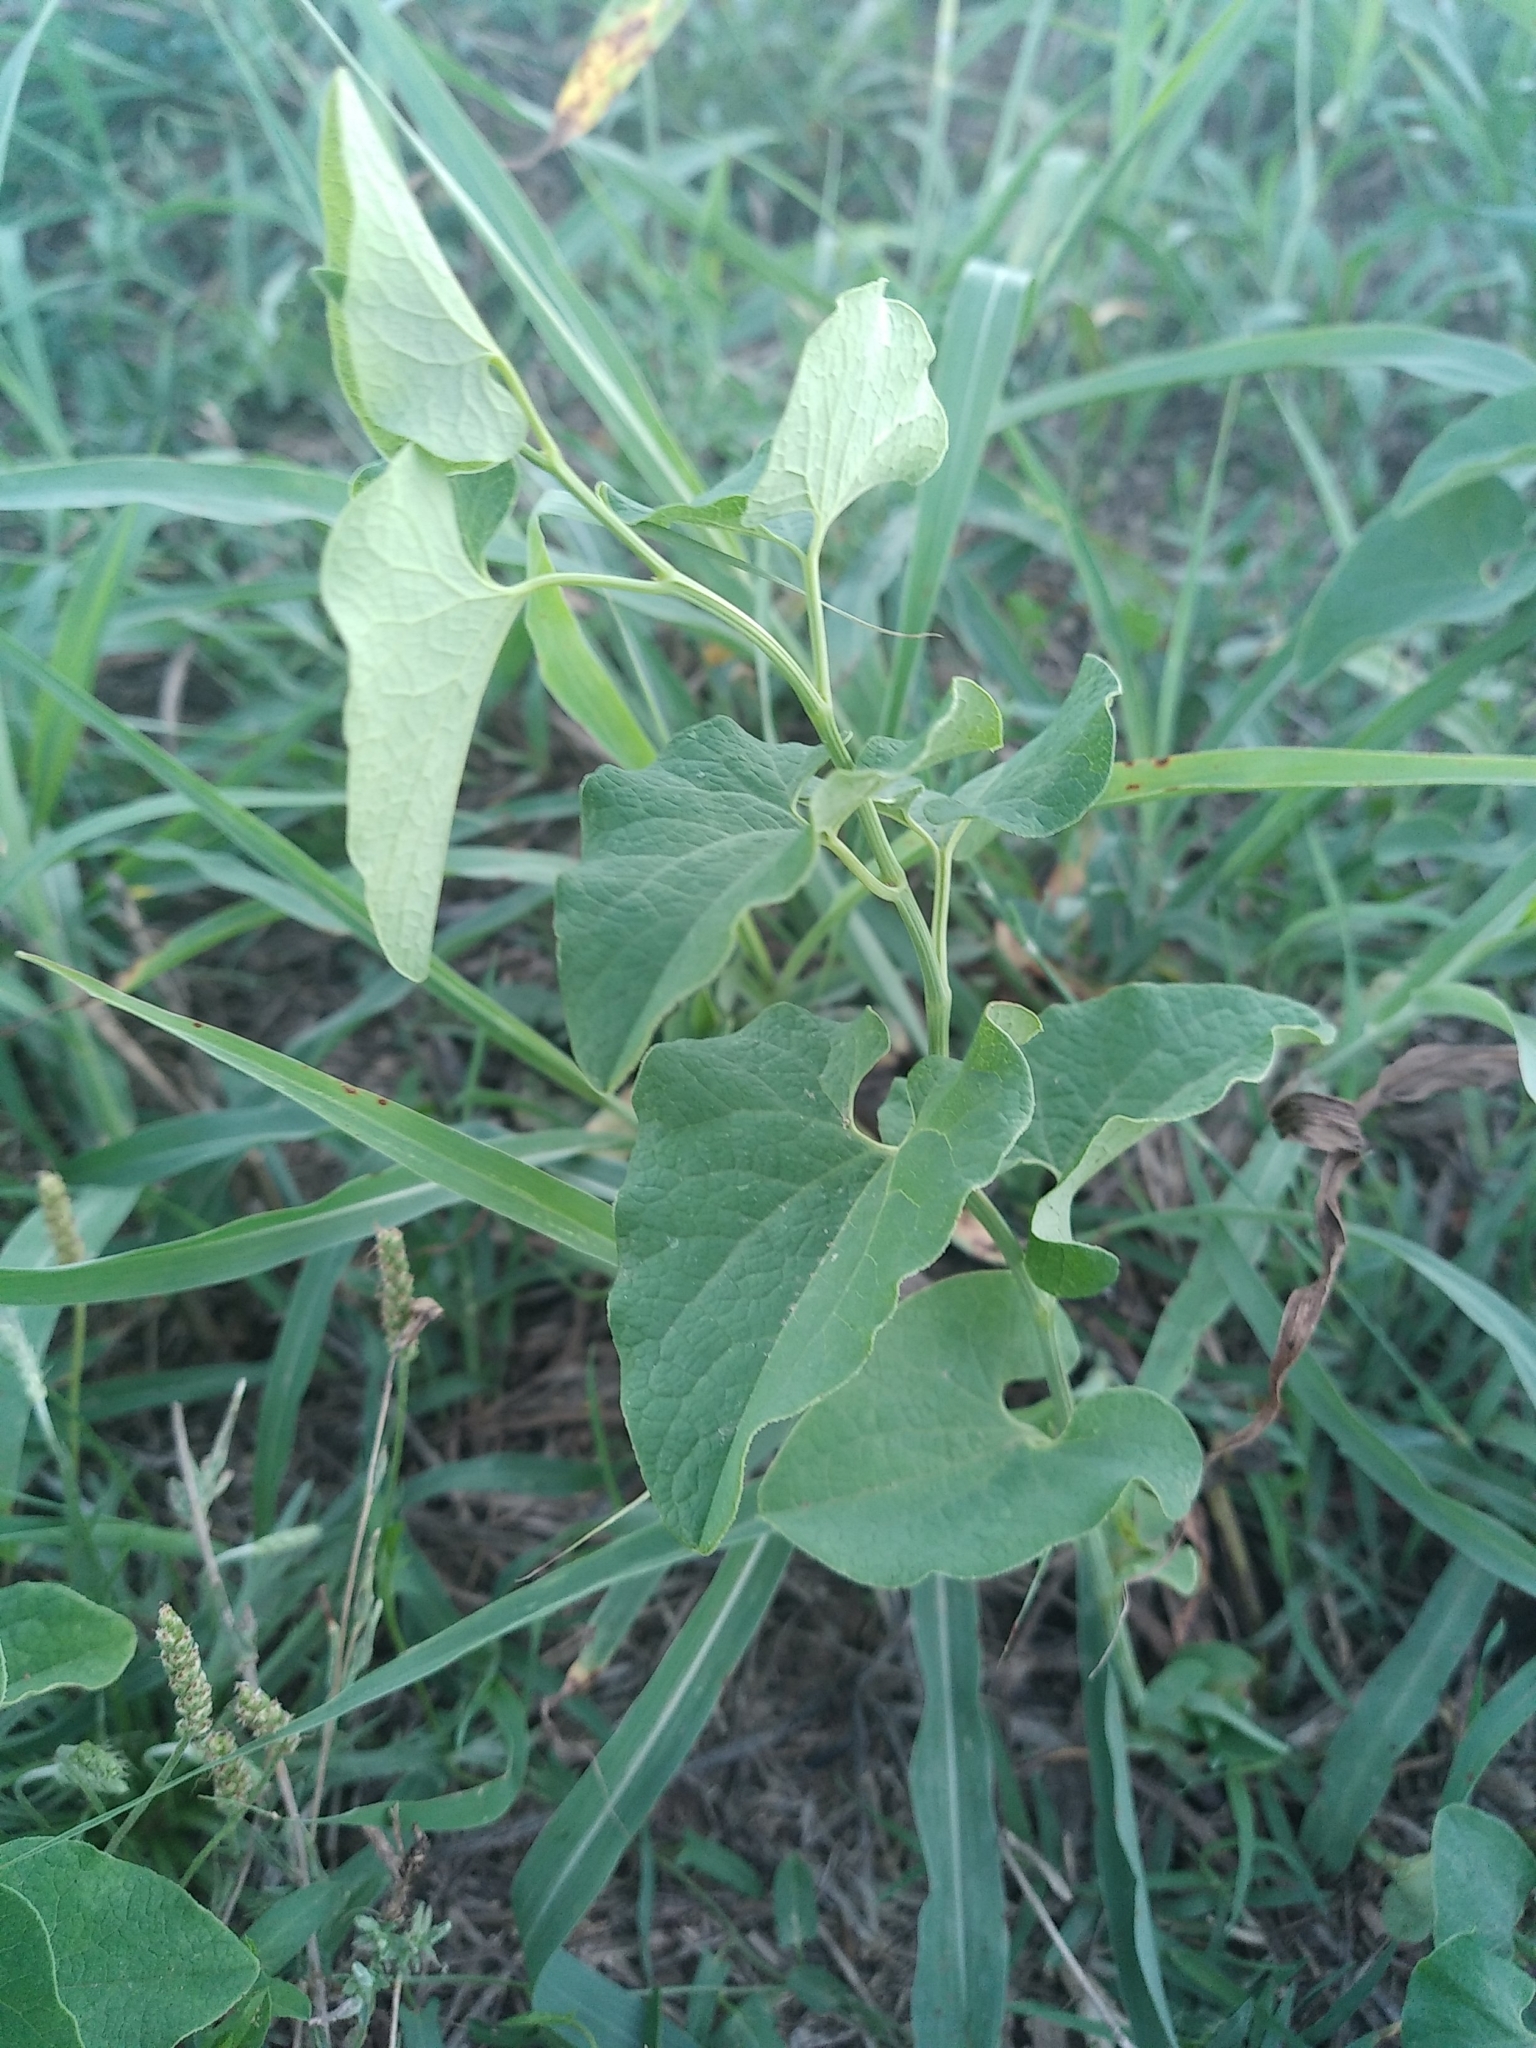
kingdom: Plantae
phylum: Tracheophyta
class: Magnoliopsida
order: Piperales
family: Aristolochiaceae
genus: Aristolochia
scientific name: Aristolochia clematitis
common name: Birthwort
